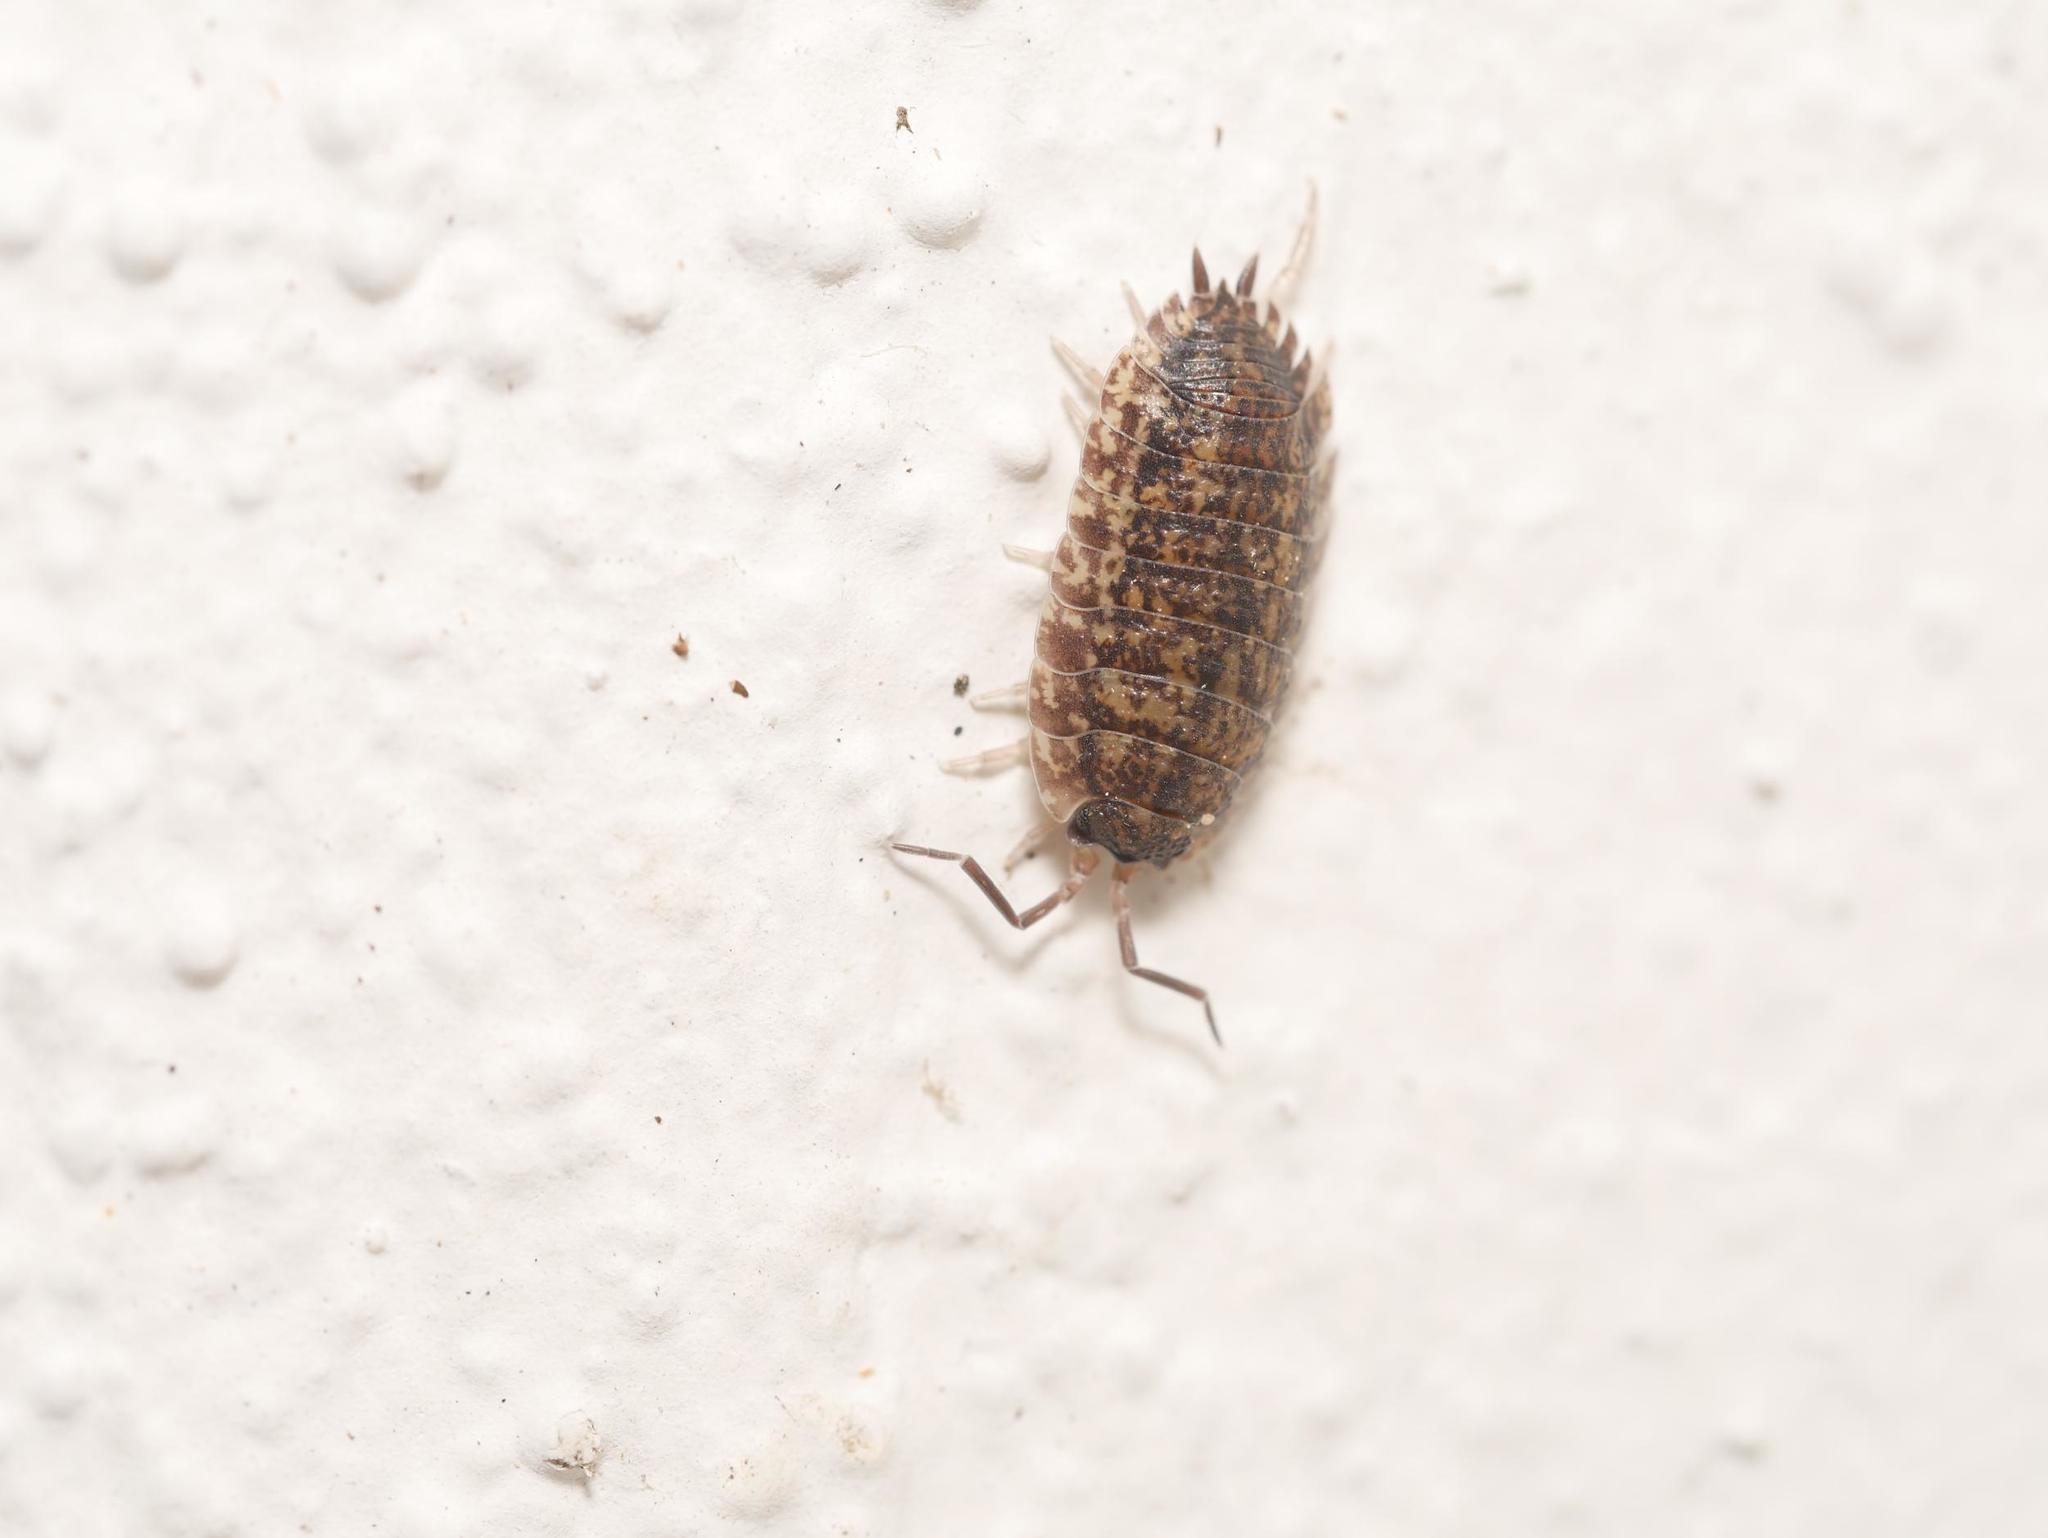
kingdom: Animalia
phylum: Arthropoda
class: Malacostraca
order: Isopoda
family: Porcellionidae
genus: Porcellio
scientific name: Porcellio scaber
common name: Common rough woodlouse
